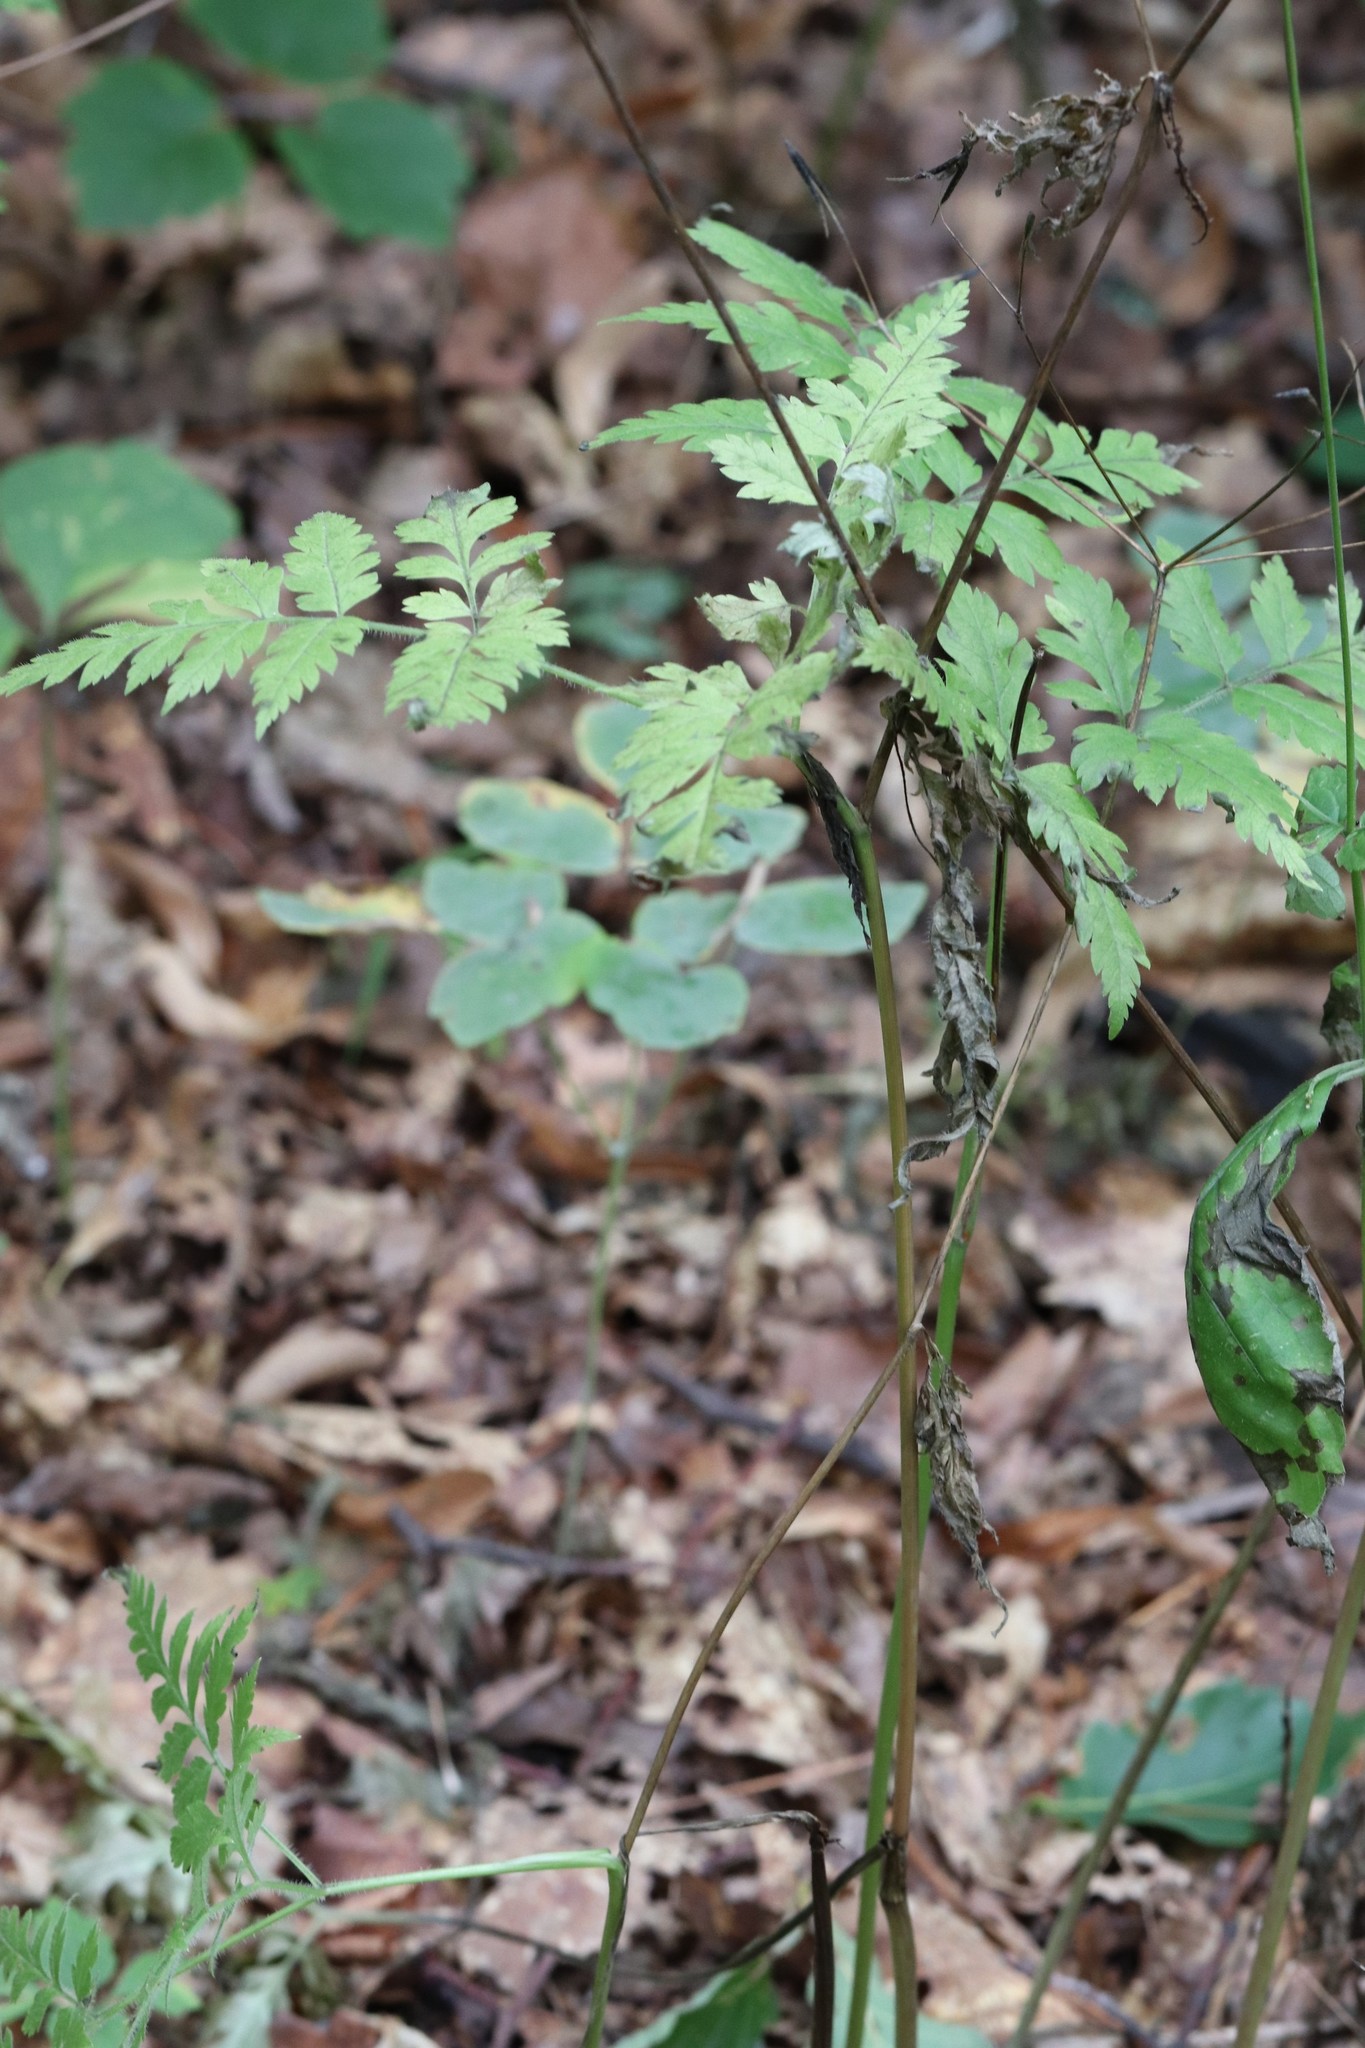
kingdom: Plantae
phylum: Tracheophyta
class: Magnoliopsida
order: Apiales
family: Apiaceae
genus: Osmorhiza
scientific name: Osmorhiza aristata
